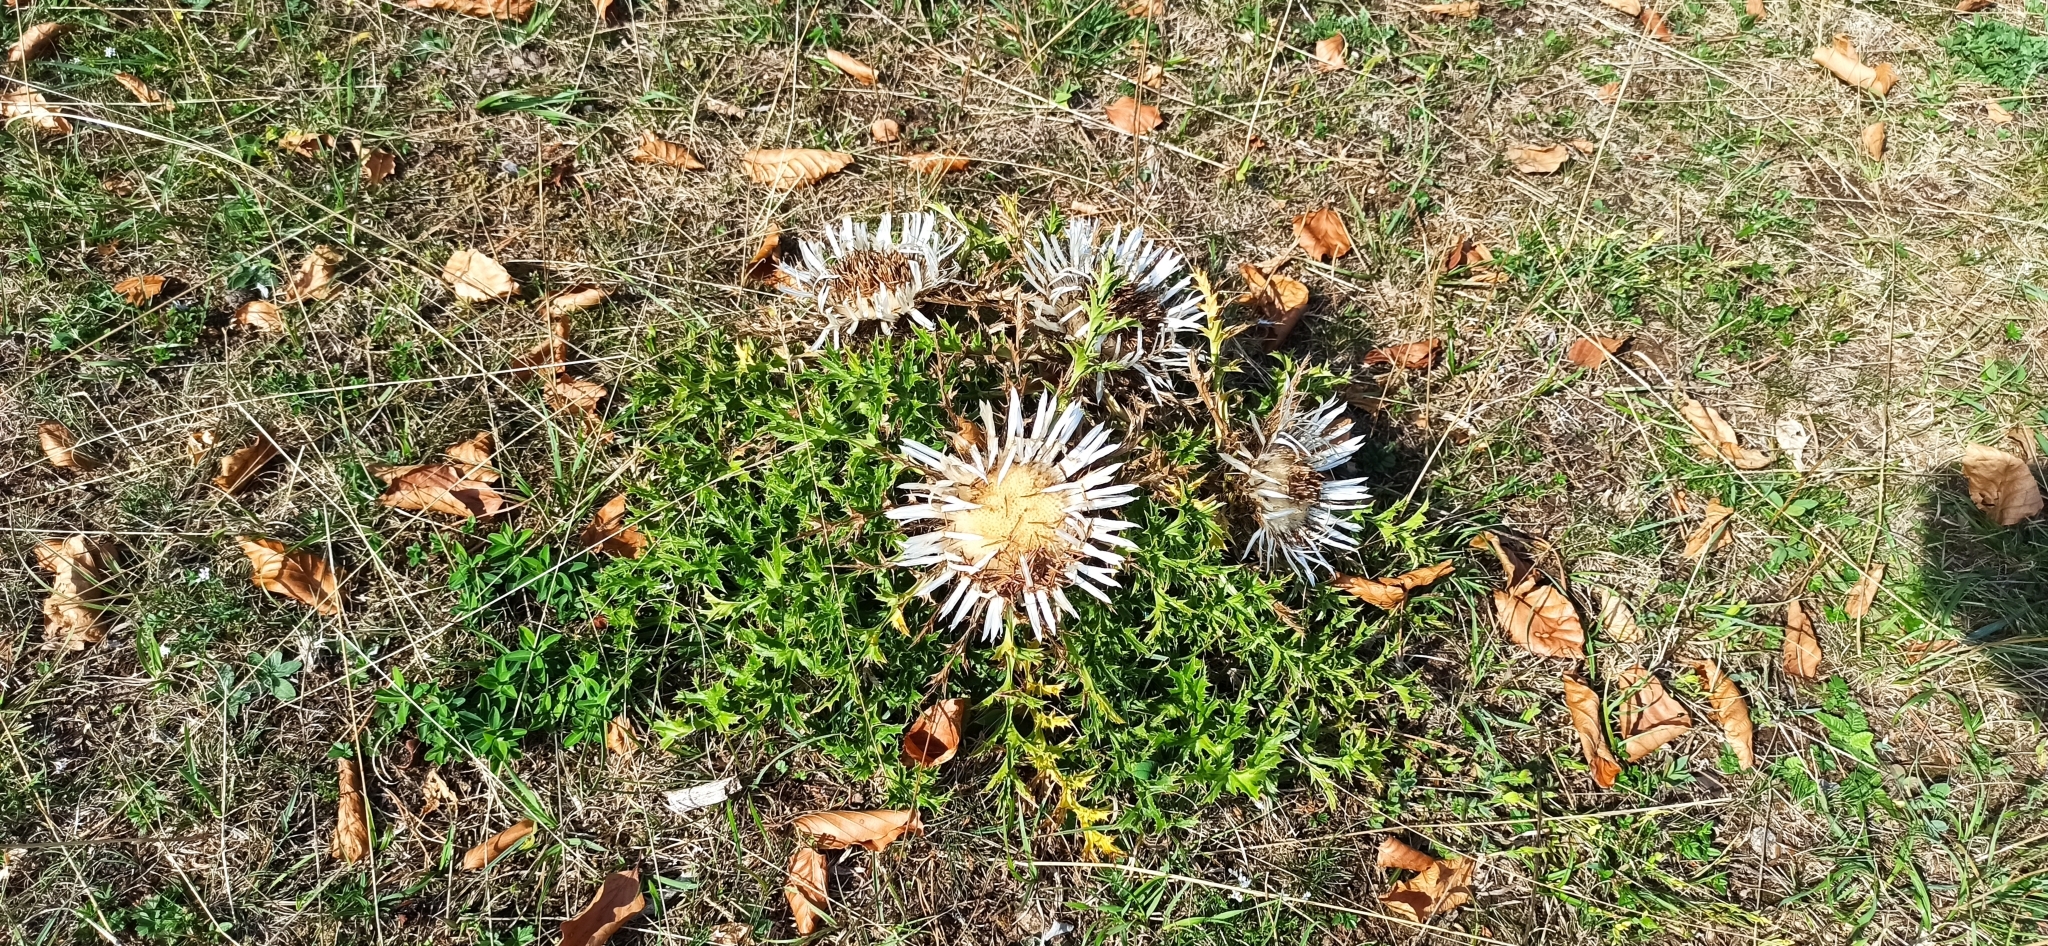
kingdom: Plantae
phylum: Tracheophyta
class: Magnoliopsida
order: Asterales
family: Asteraceae
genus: Carlina
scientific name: Carlina acaulis
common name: Stemless carline thistle
